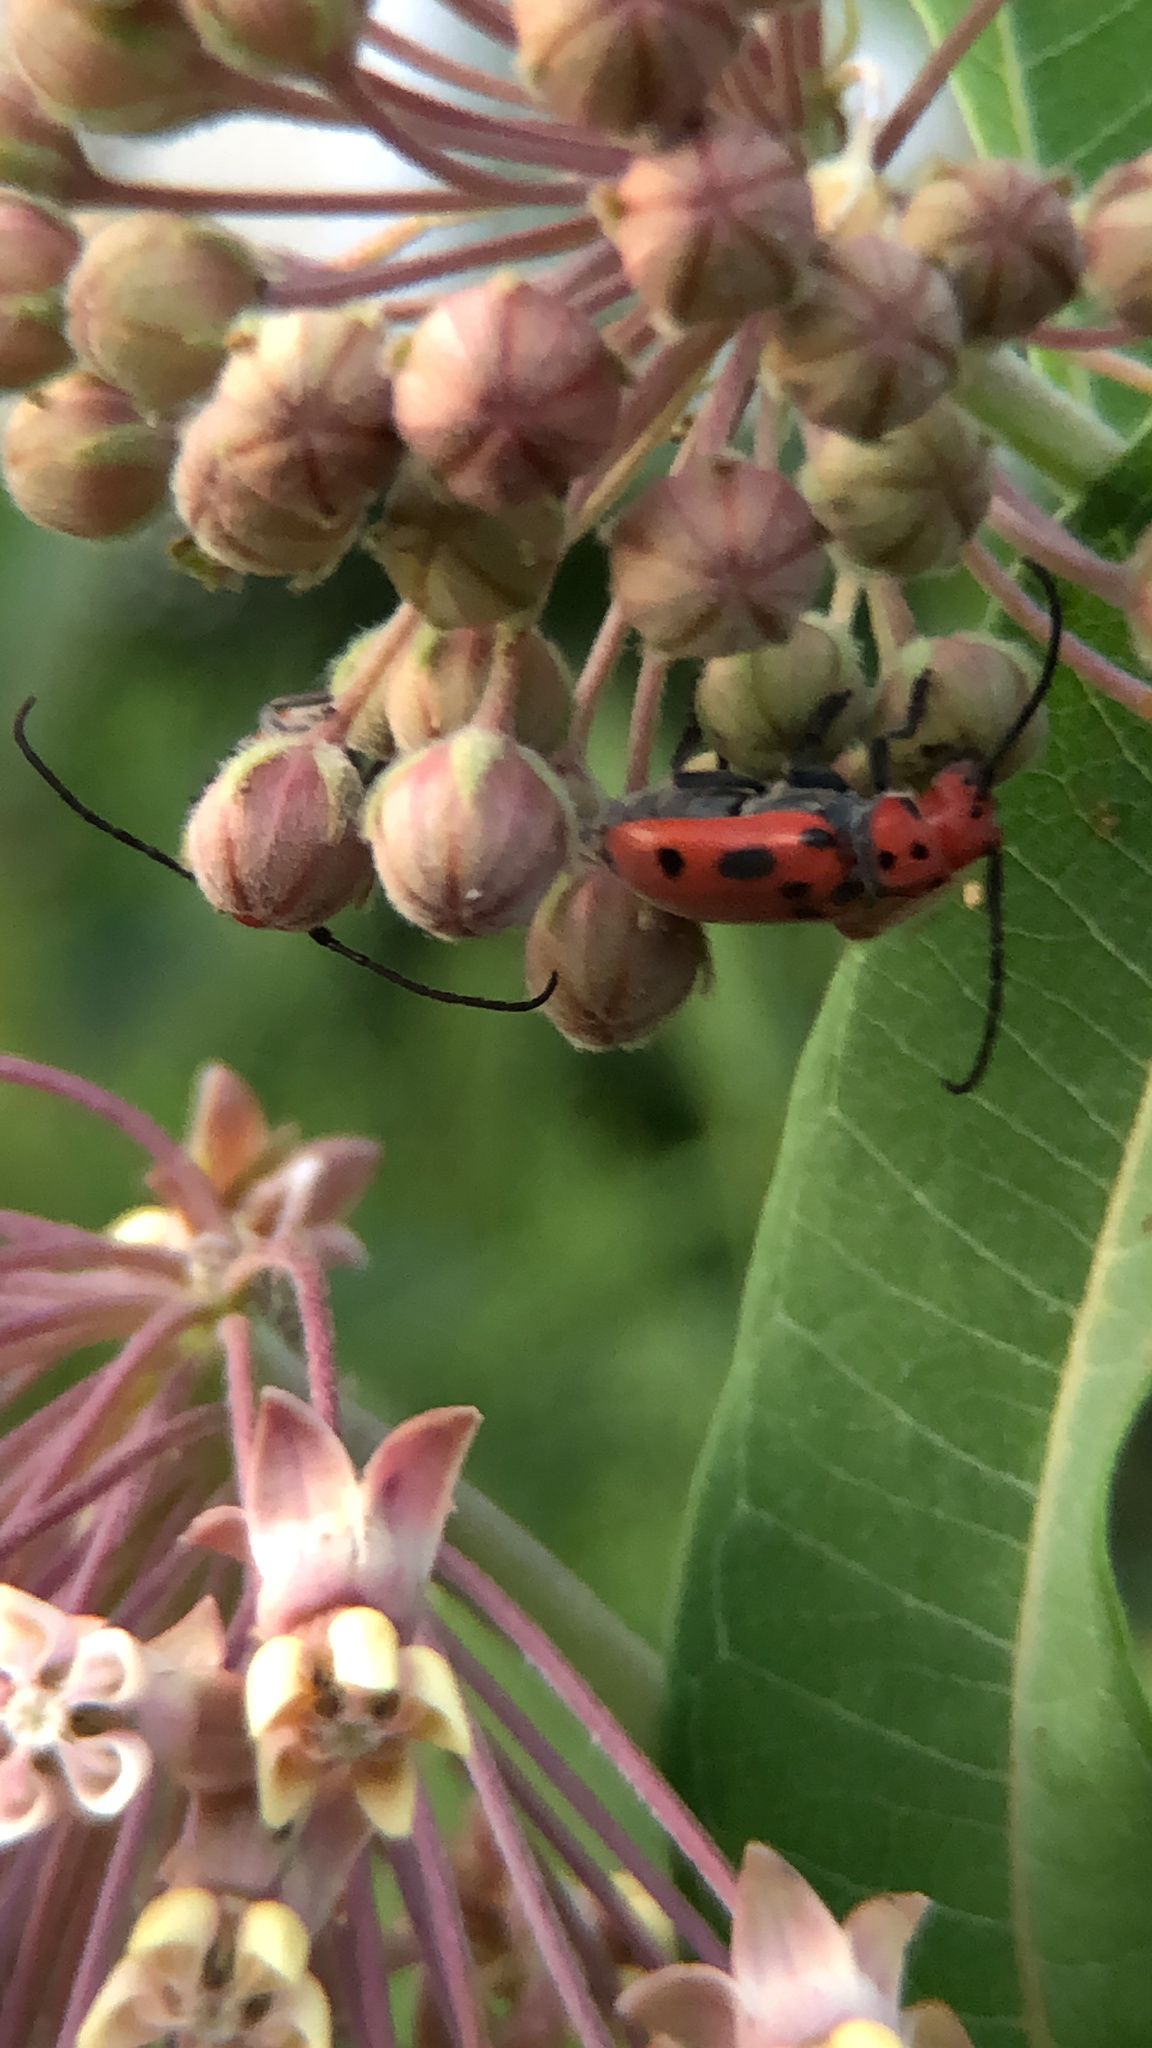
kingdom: Animalia
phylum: Arthropoda
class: Insecta
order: Coleoptera
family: Cerambycidae
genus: Tetraopes
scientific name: Tetraopes tetrophthalmus
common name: Red milkweed beetle
